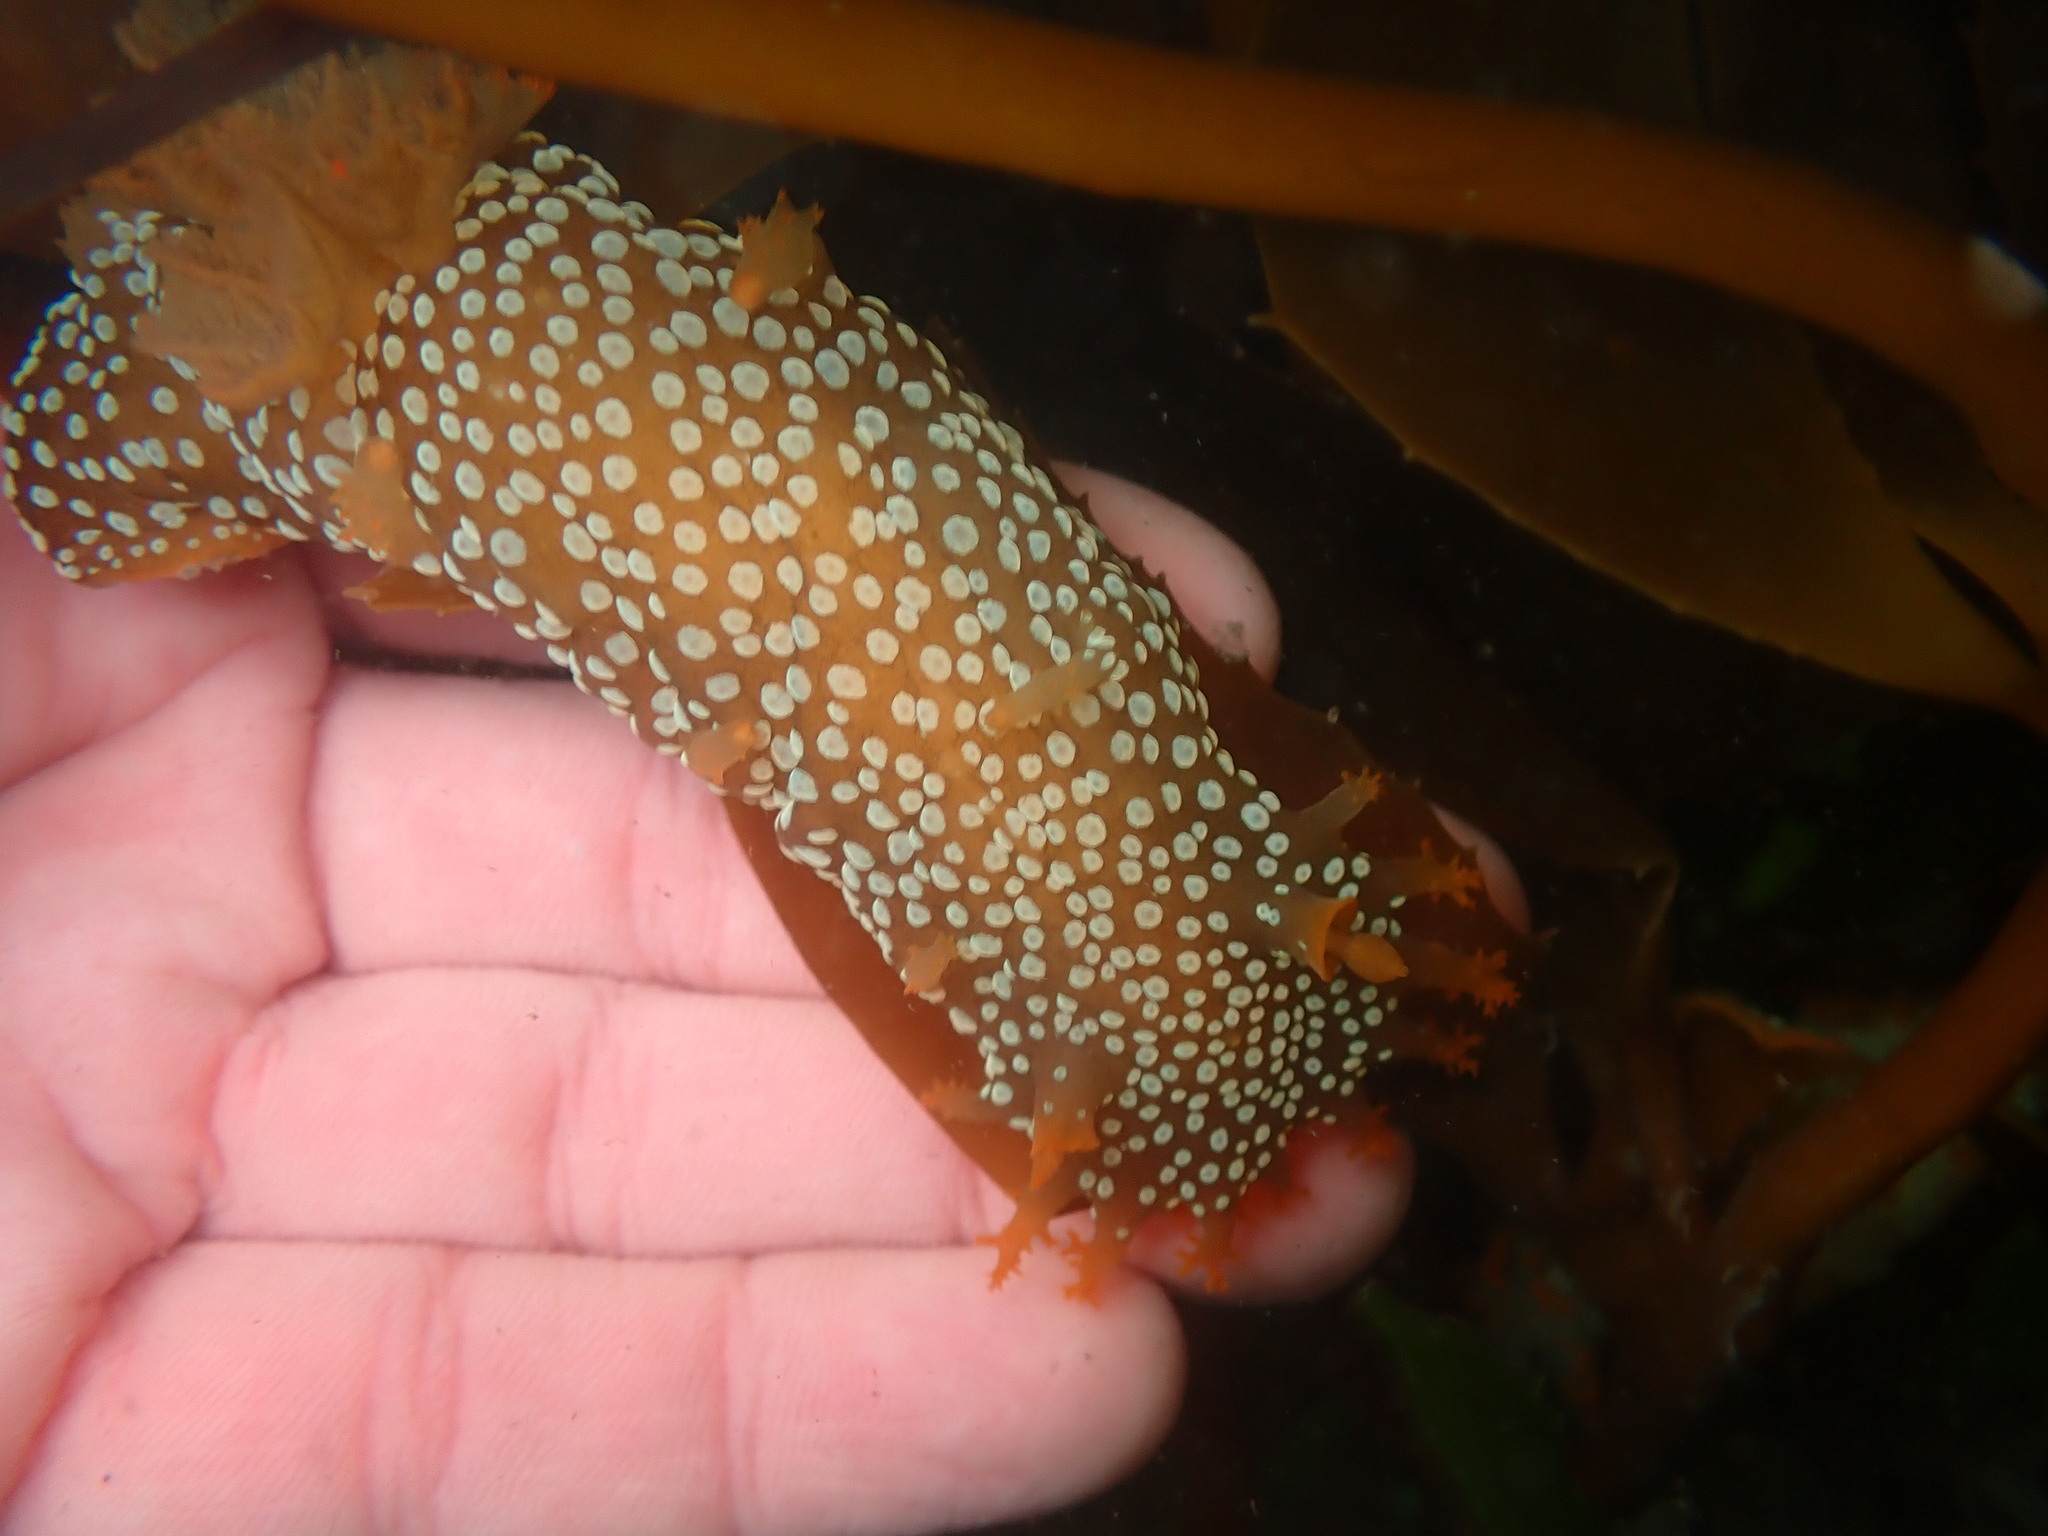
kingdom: Animalia
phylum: Mollusca
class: Gastropoda
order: Nudibranchia
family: Polyceridae
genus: Triopha
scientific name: Triopha maculata
